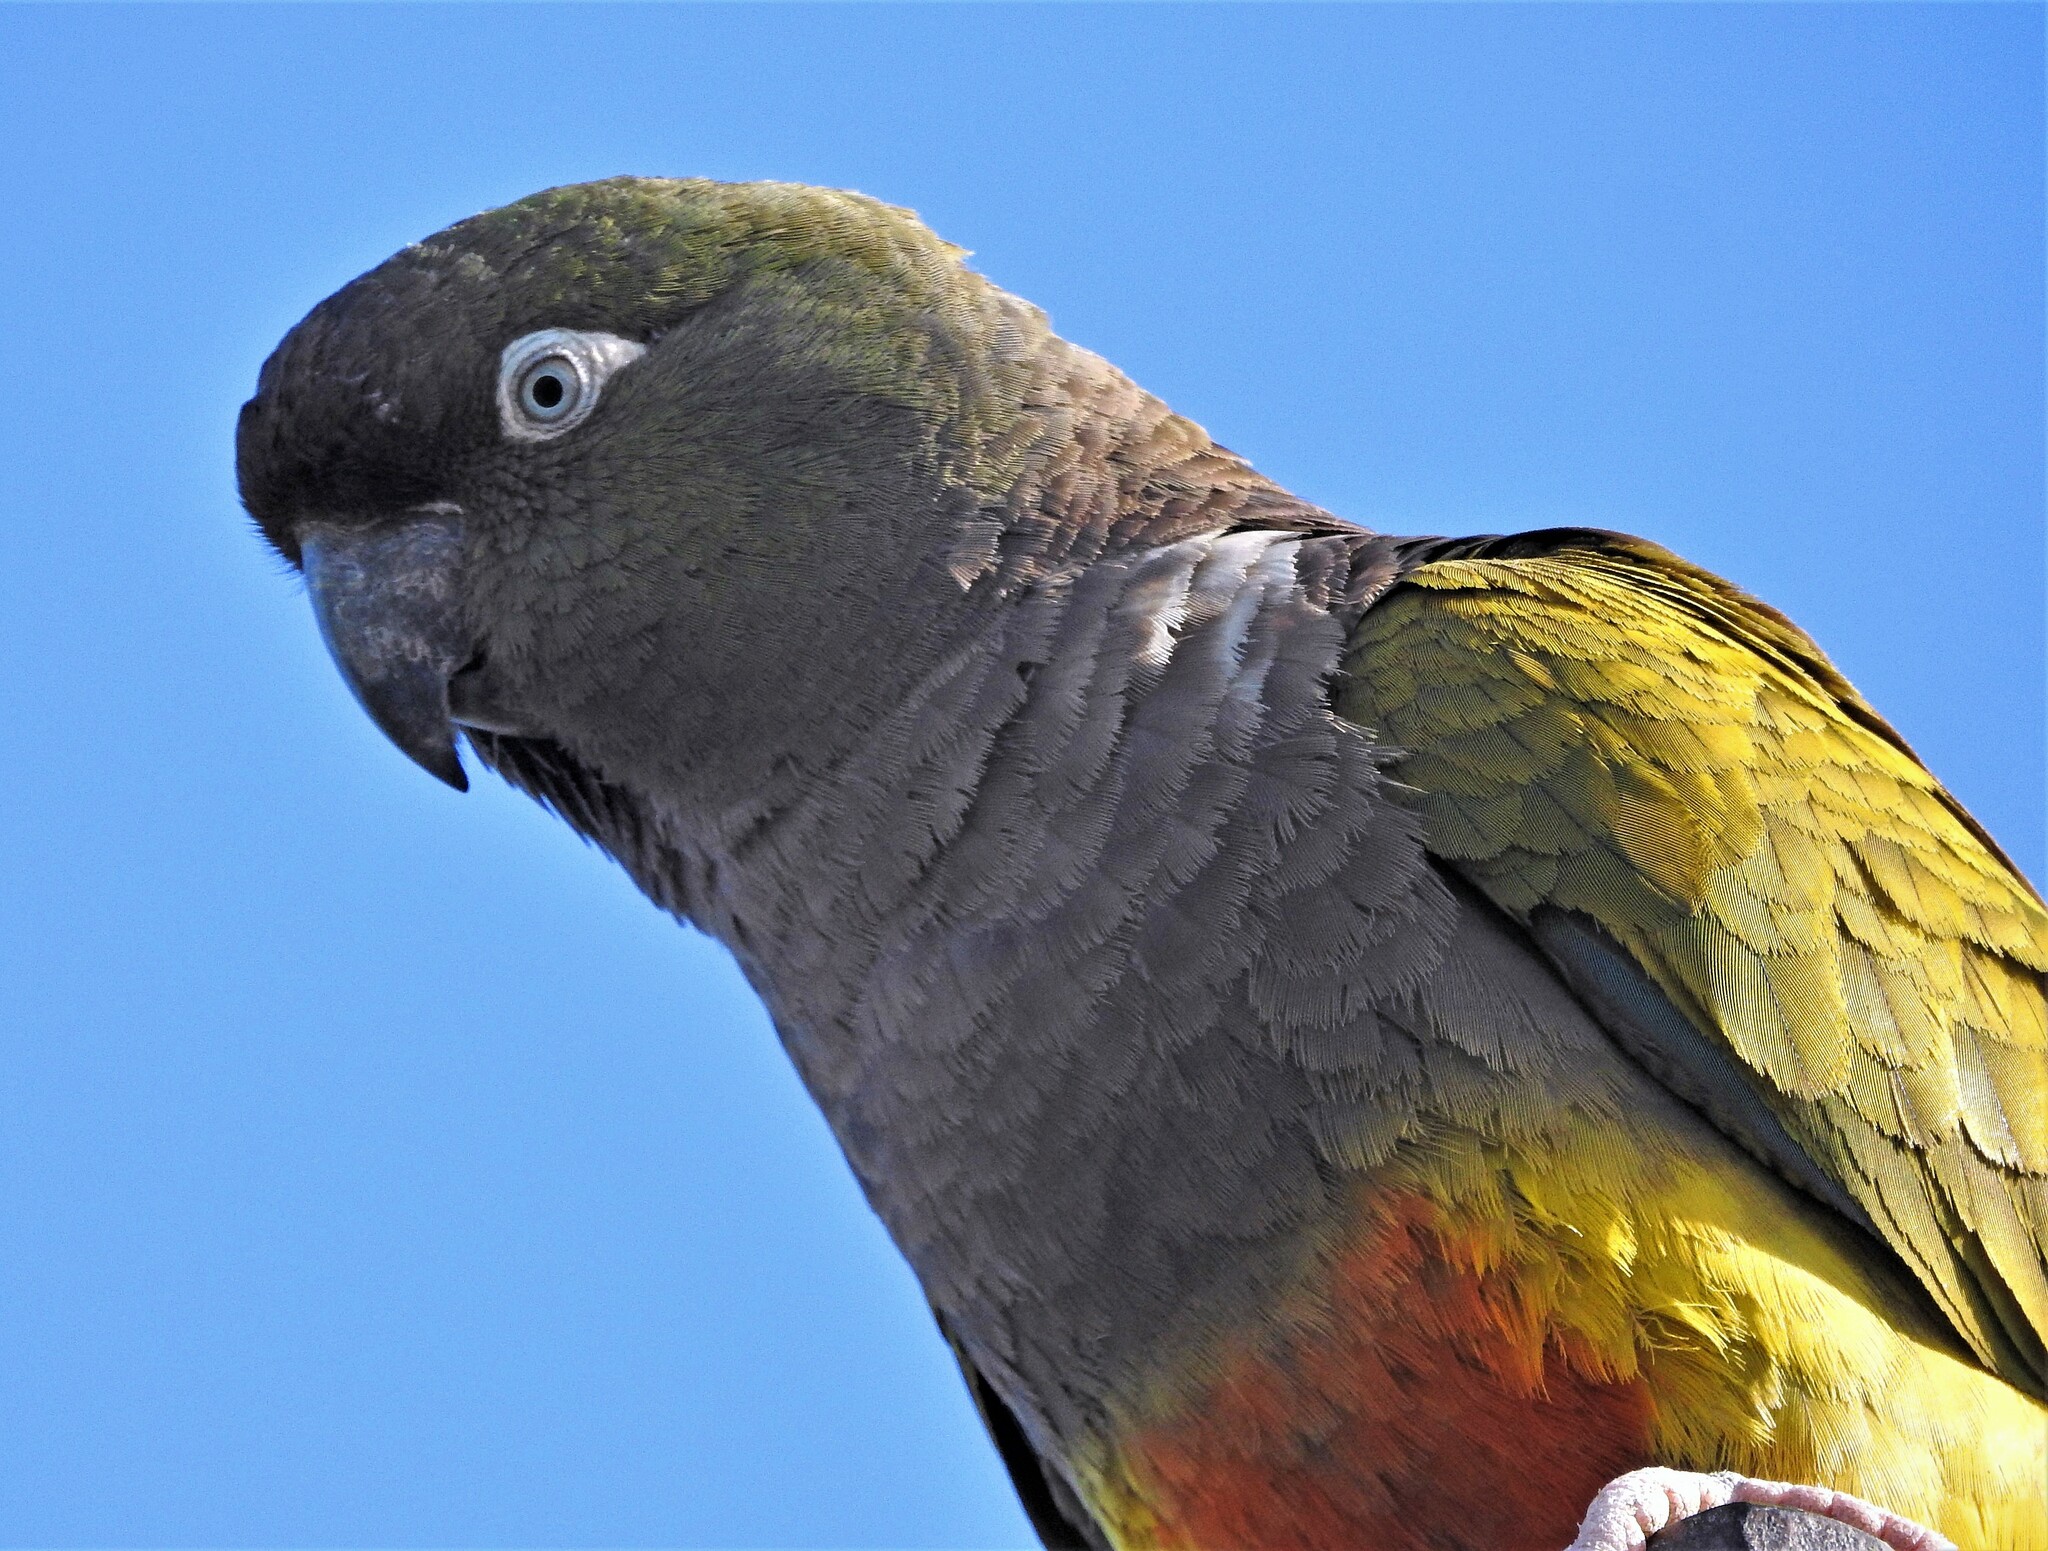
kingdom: Animalia
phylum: Chordata
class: Aves
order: Psittaciformes
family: Psittacidae
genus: Cyanoliseus
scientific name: Cyanoliseus patagonus
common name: Burrowing parrot
